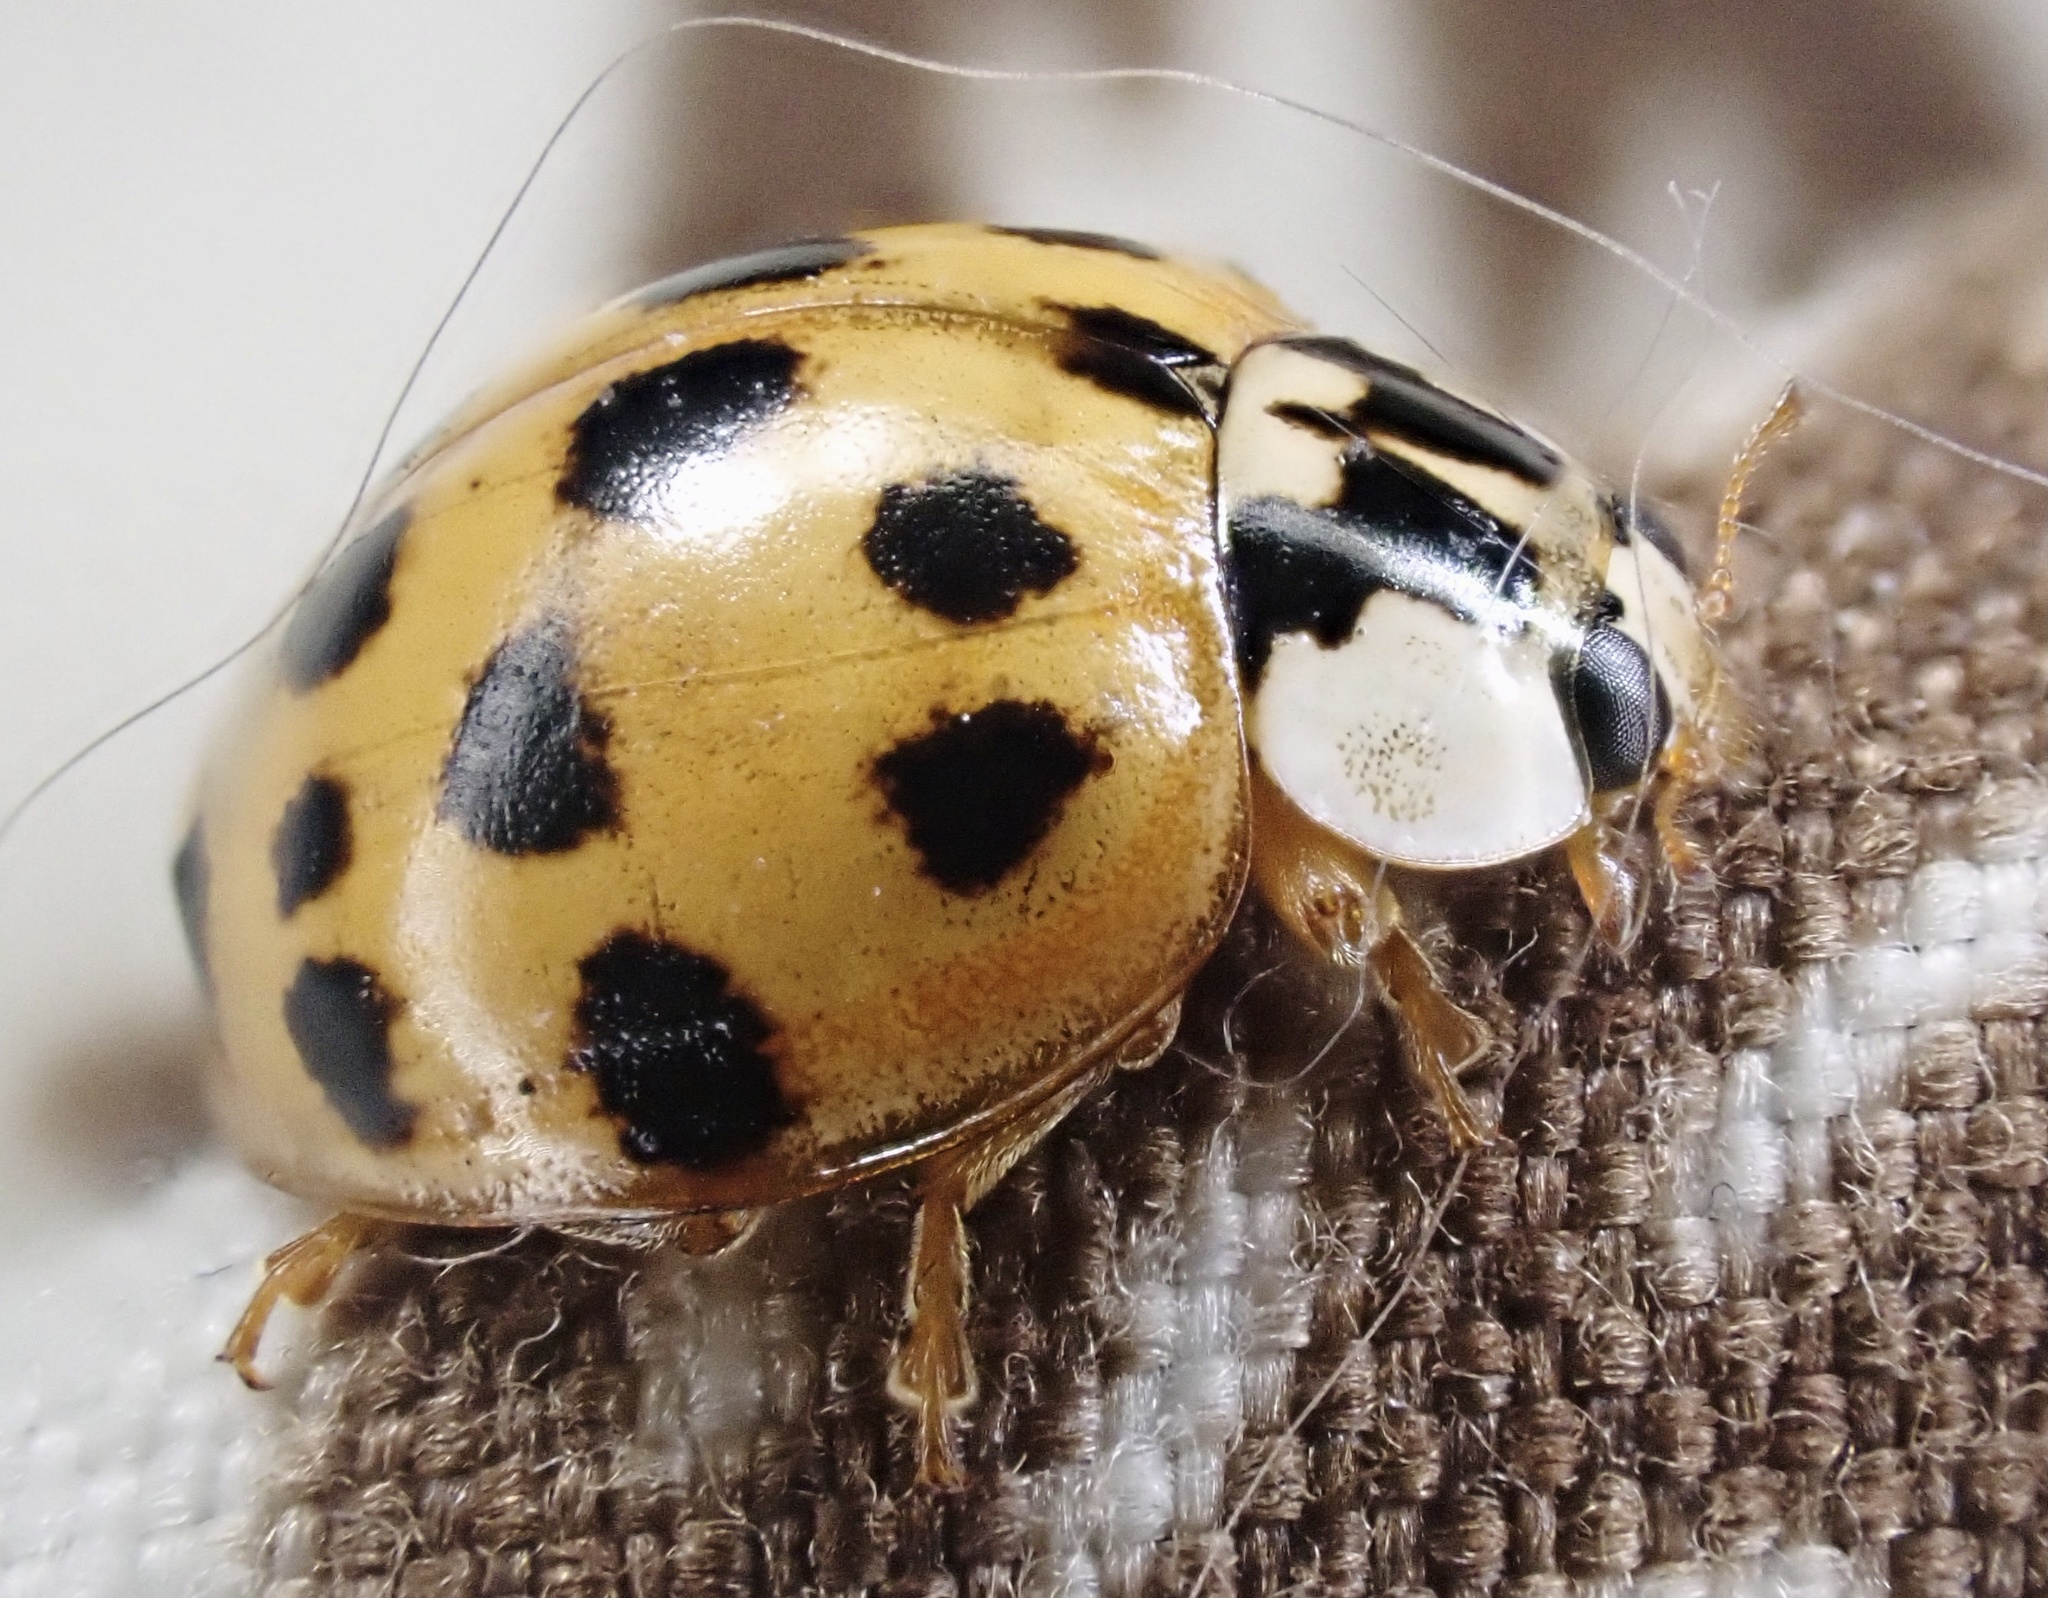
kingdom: Animalia
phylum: Arthropoda
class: Insecta
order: Coleoptera
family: Coccinellidae
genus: Harmonia
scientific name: Harmonia axyridis
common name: Harlequin ladybird
